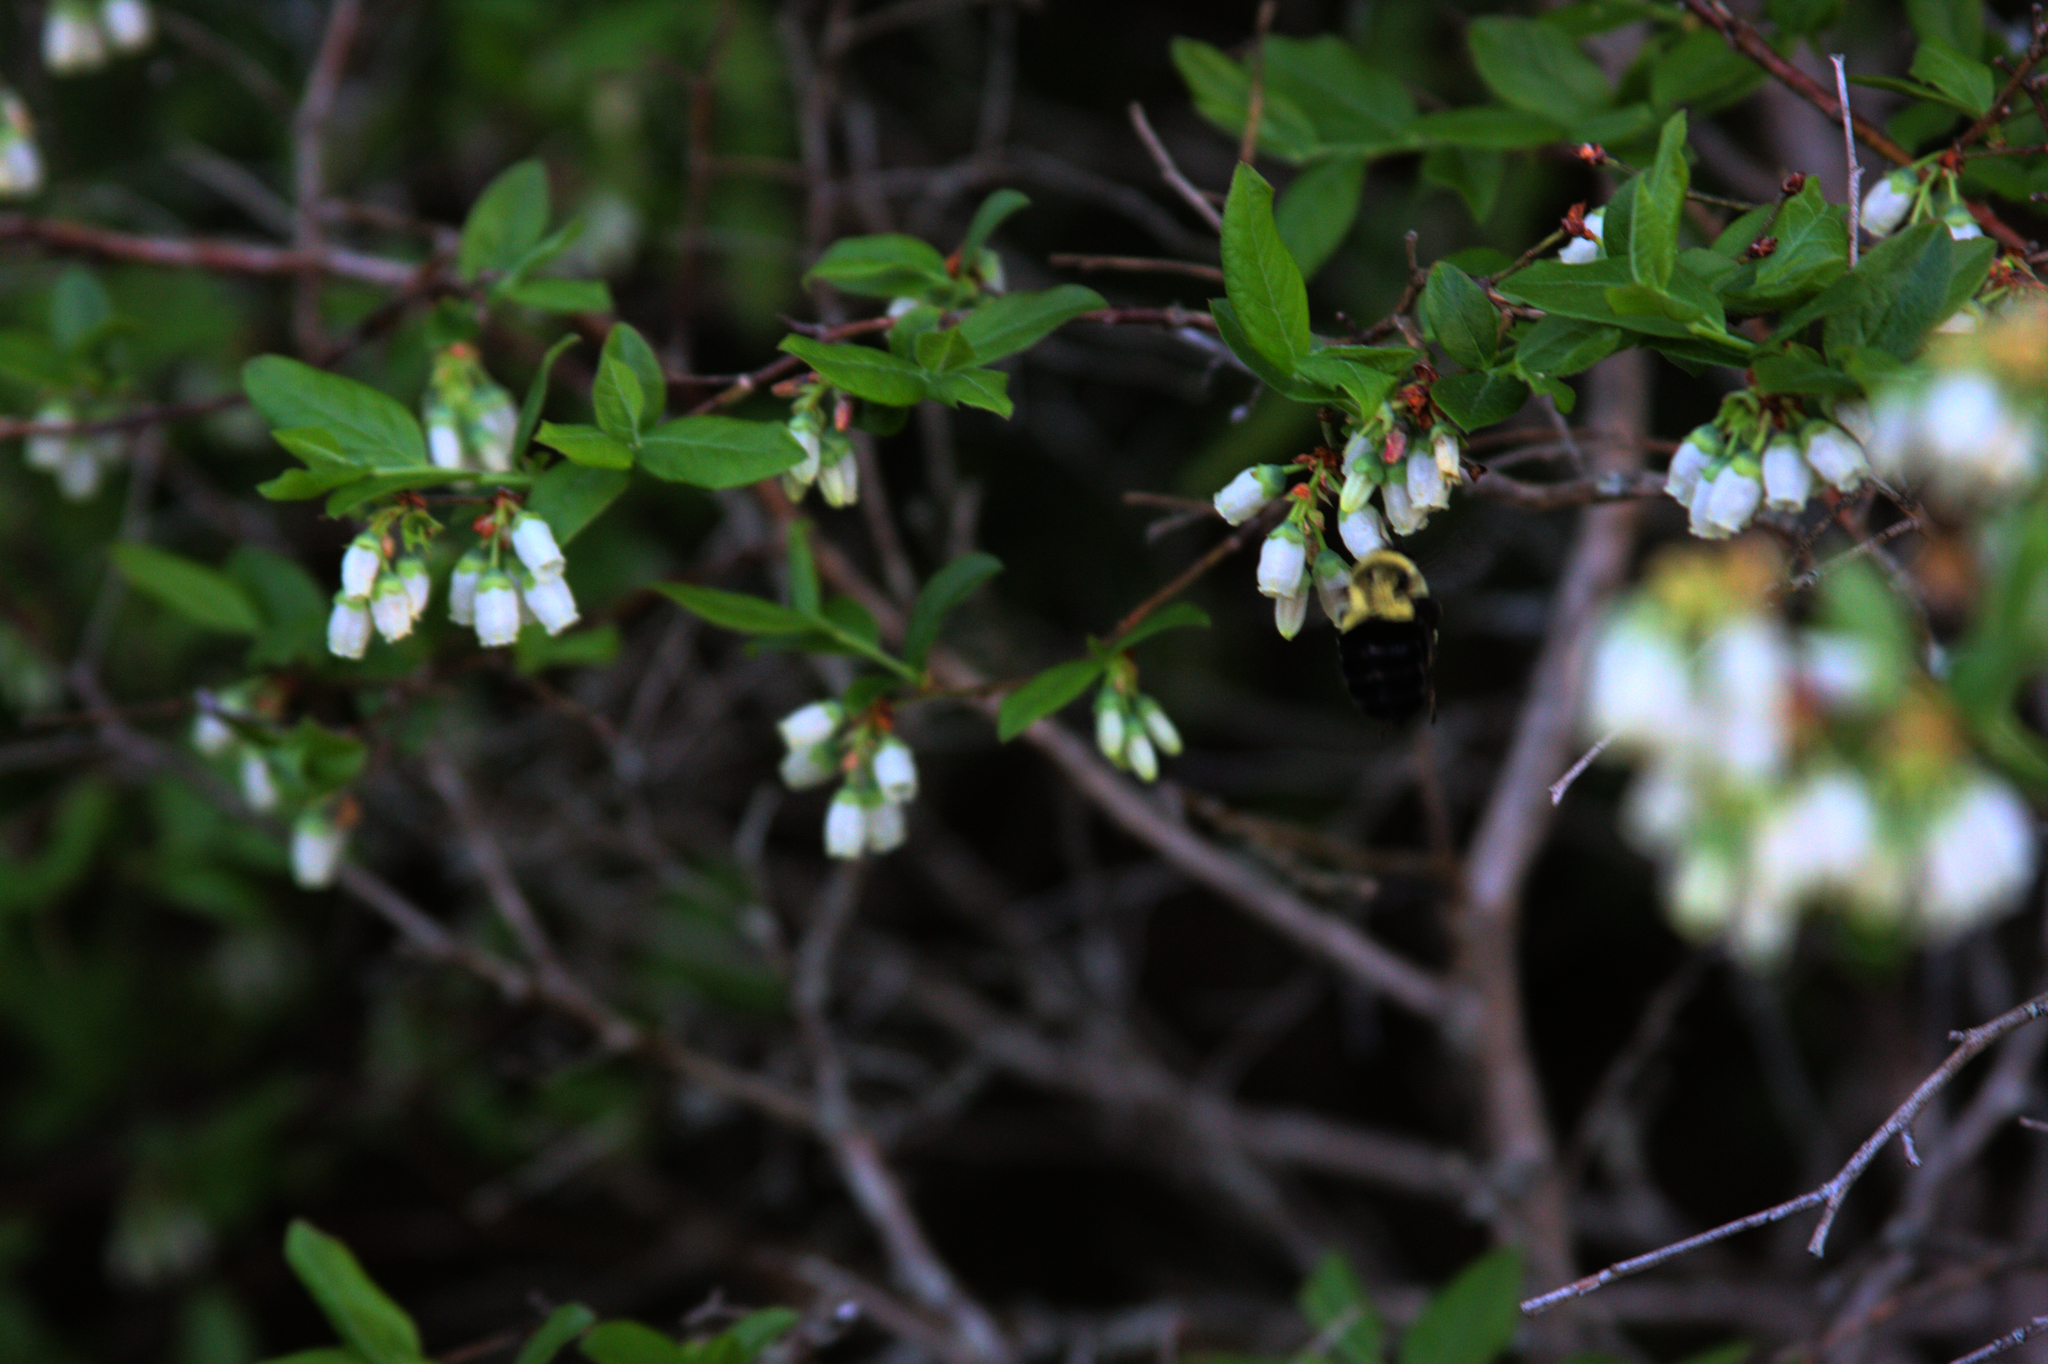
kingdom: Animalia
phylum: Arthropoda
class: Insecta
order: Hymenoptera
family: Apidae
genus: Bombus
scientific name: Bombus impatiens
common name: Common eastern bumble bee
